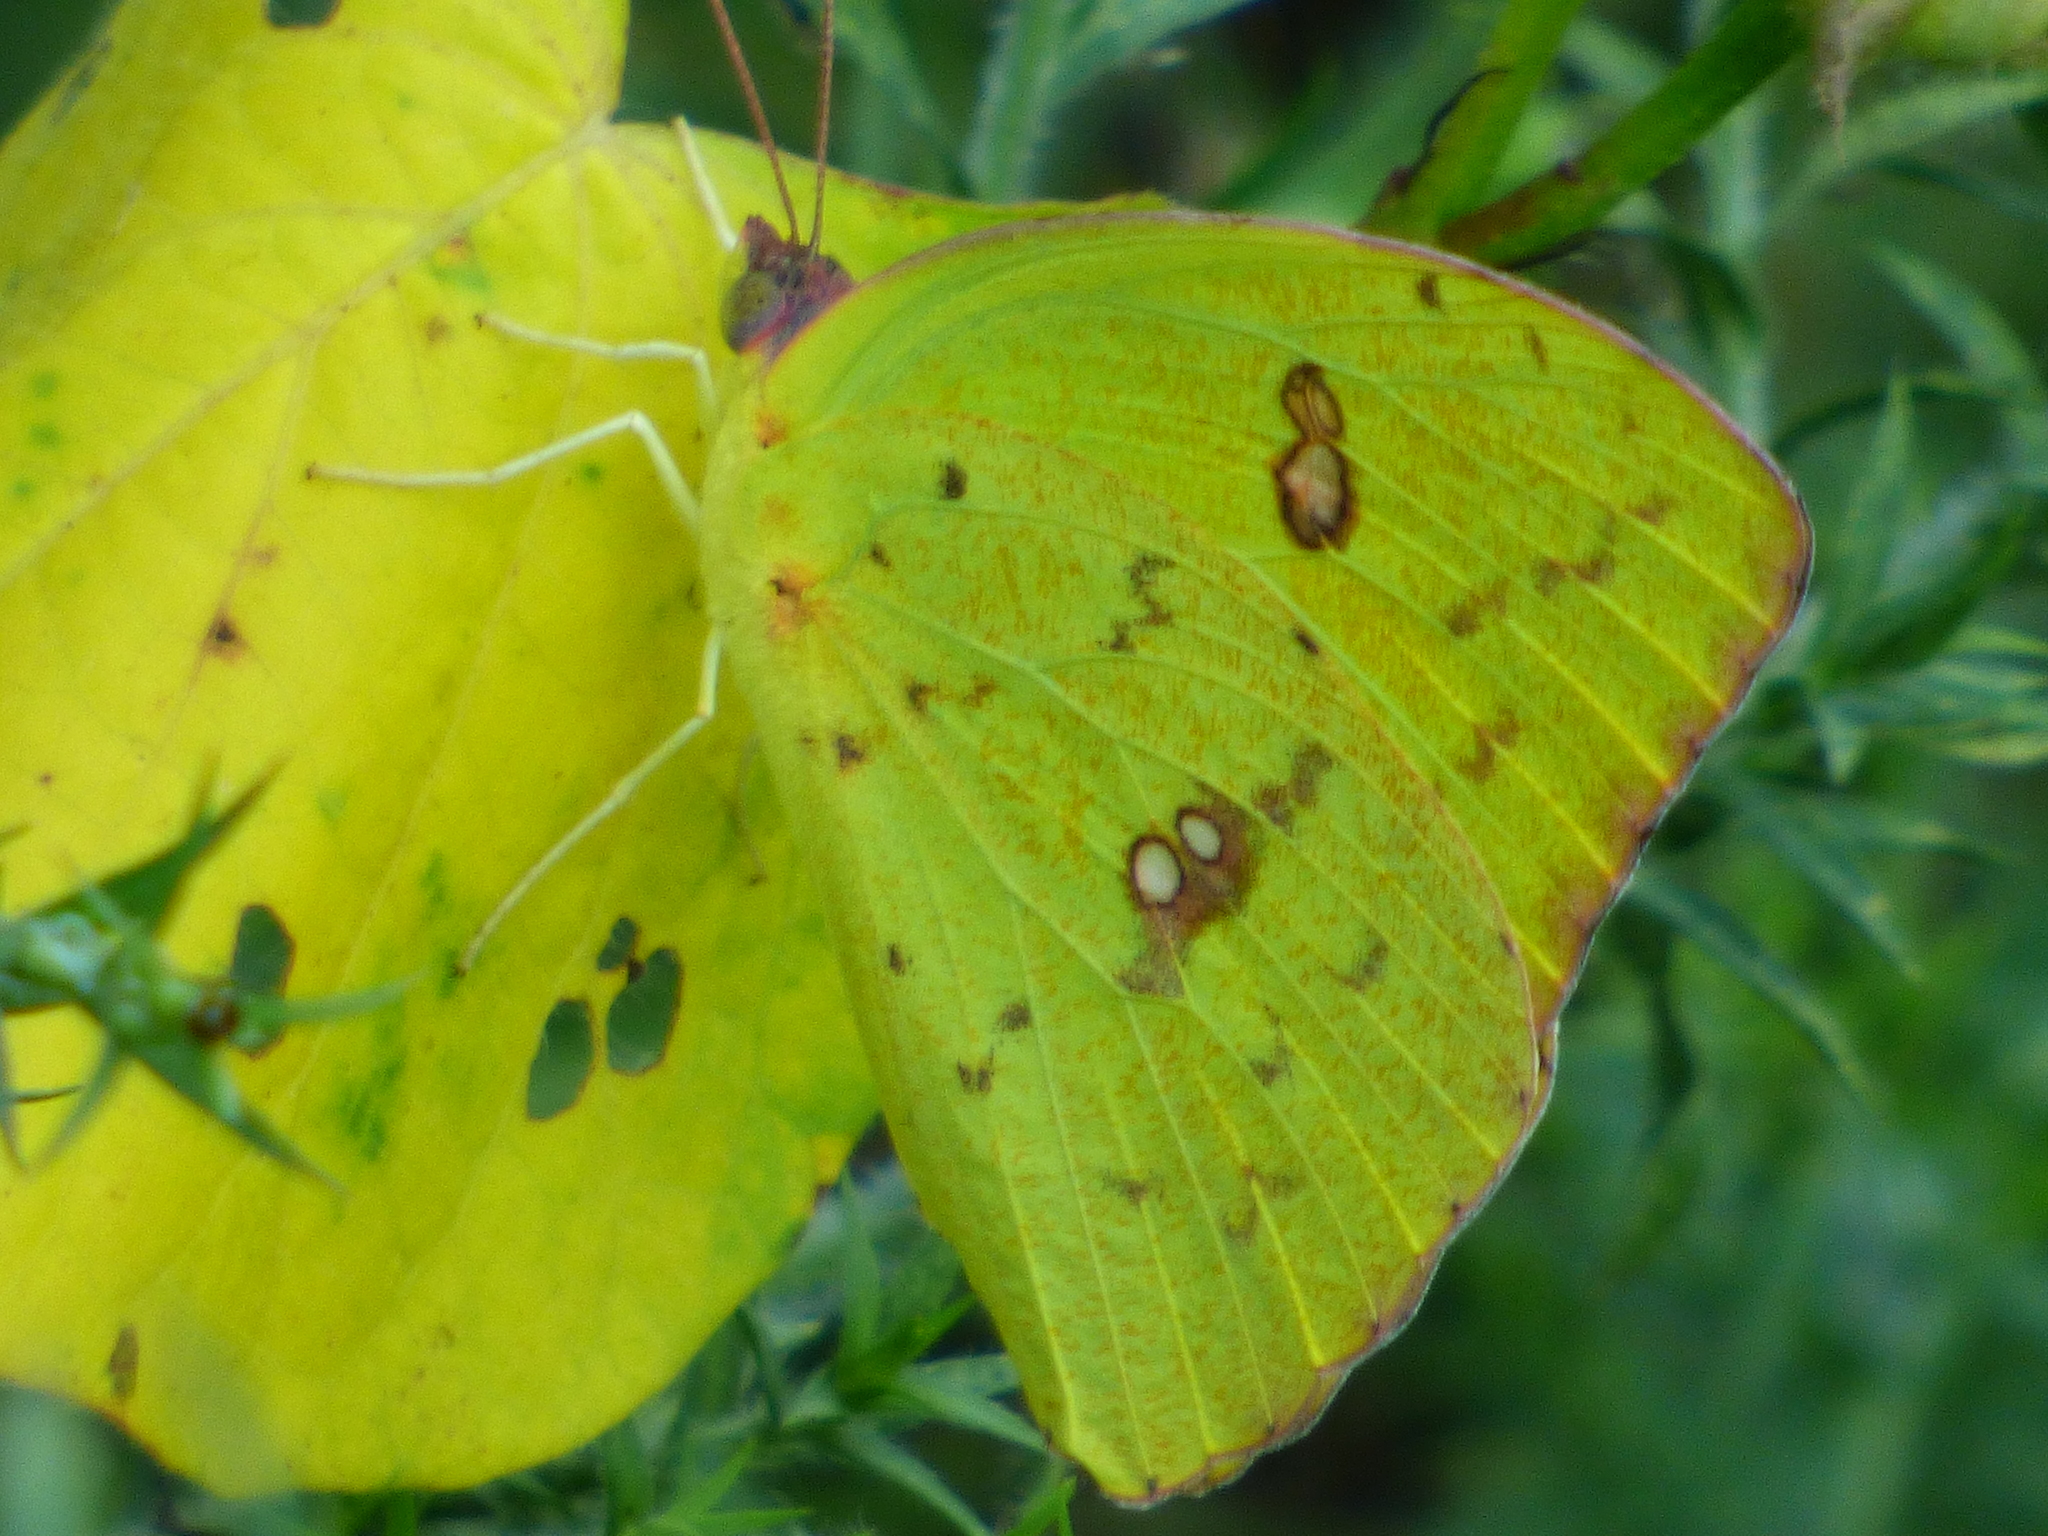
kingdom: Animalia
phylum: Arthropoda
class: Insecta
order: Lepidoptera
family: Pieridae
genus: Phoebis
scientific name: Phoebis sennae
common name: Cloudless sulphur
